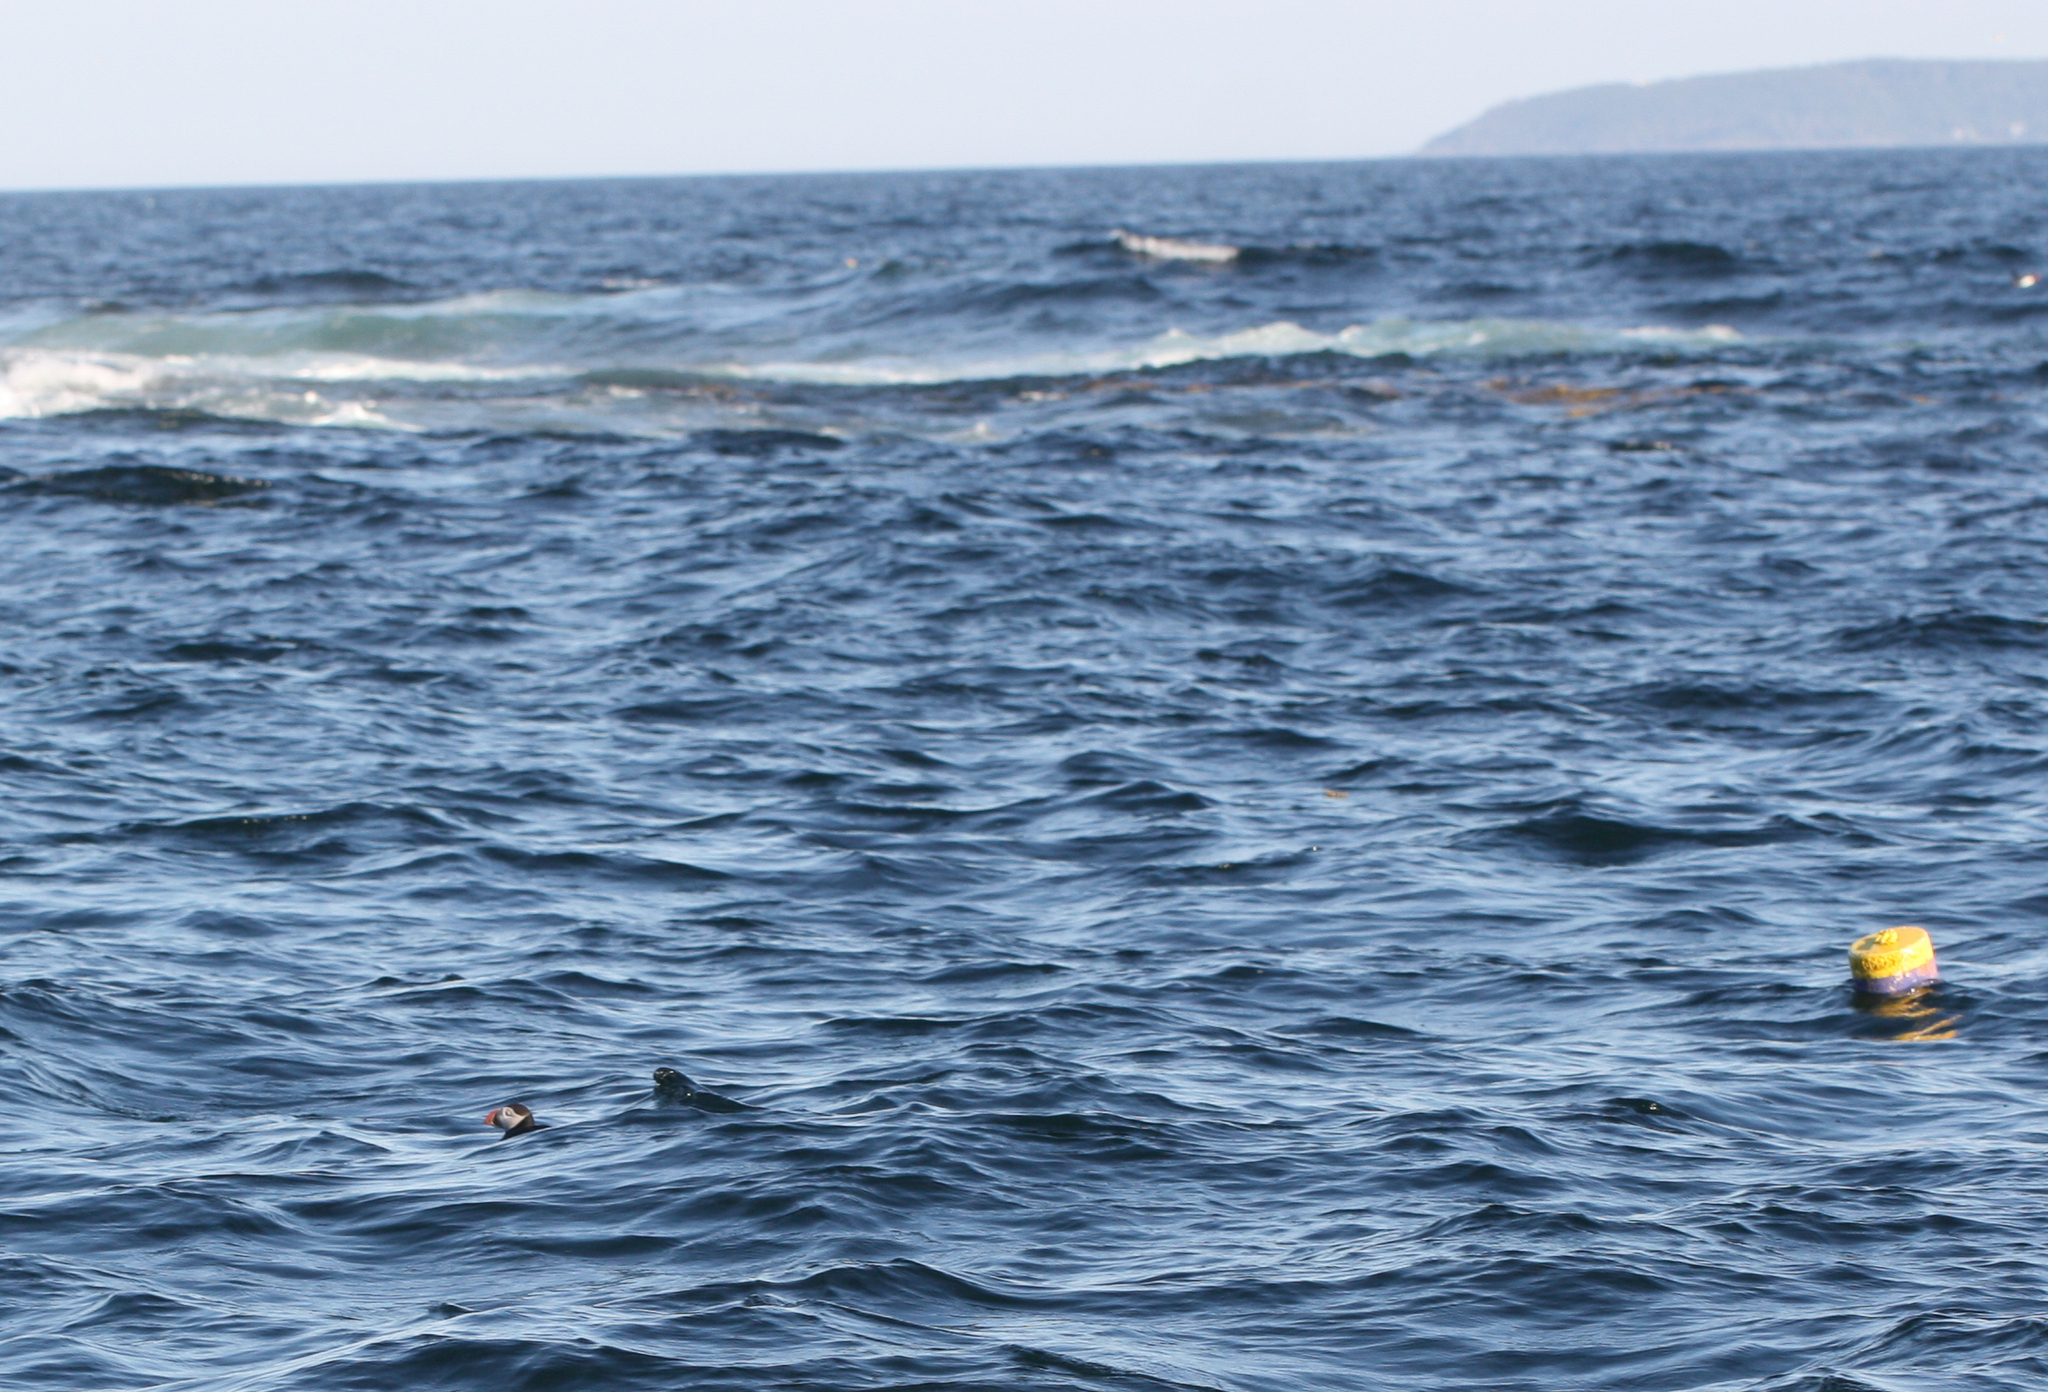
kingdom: Animalia
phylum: Chordata
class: Aves
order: Charadriiformes
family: Alcidae
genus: Fratercula
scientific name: Fratercula arctica
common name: Atlantic puffin
